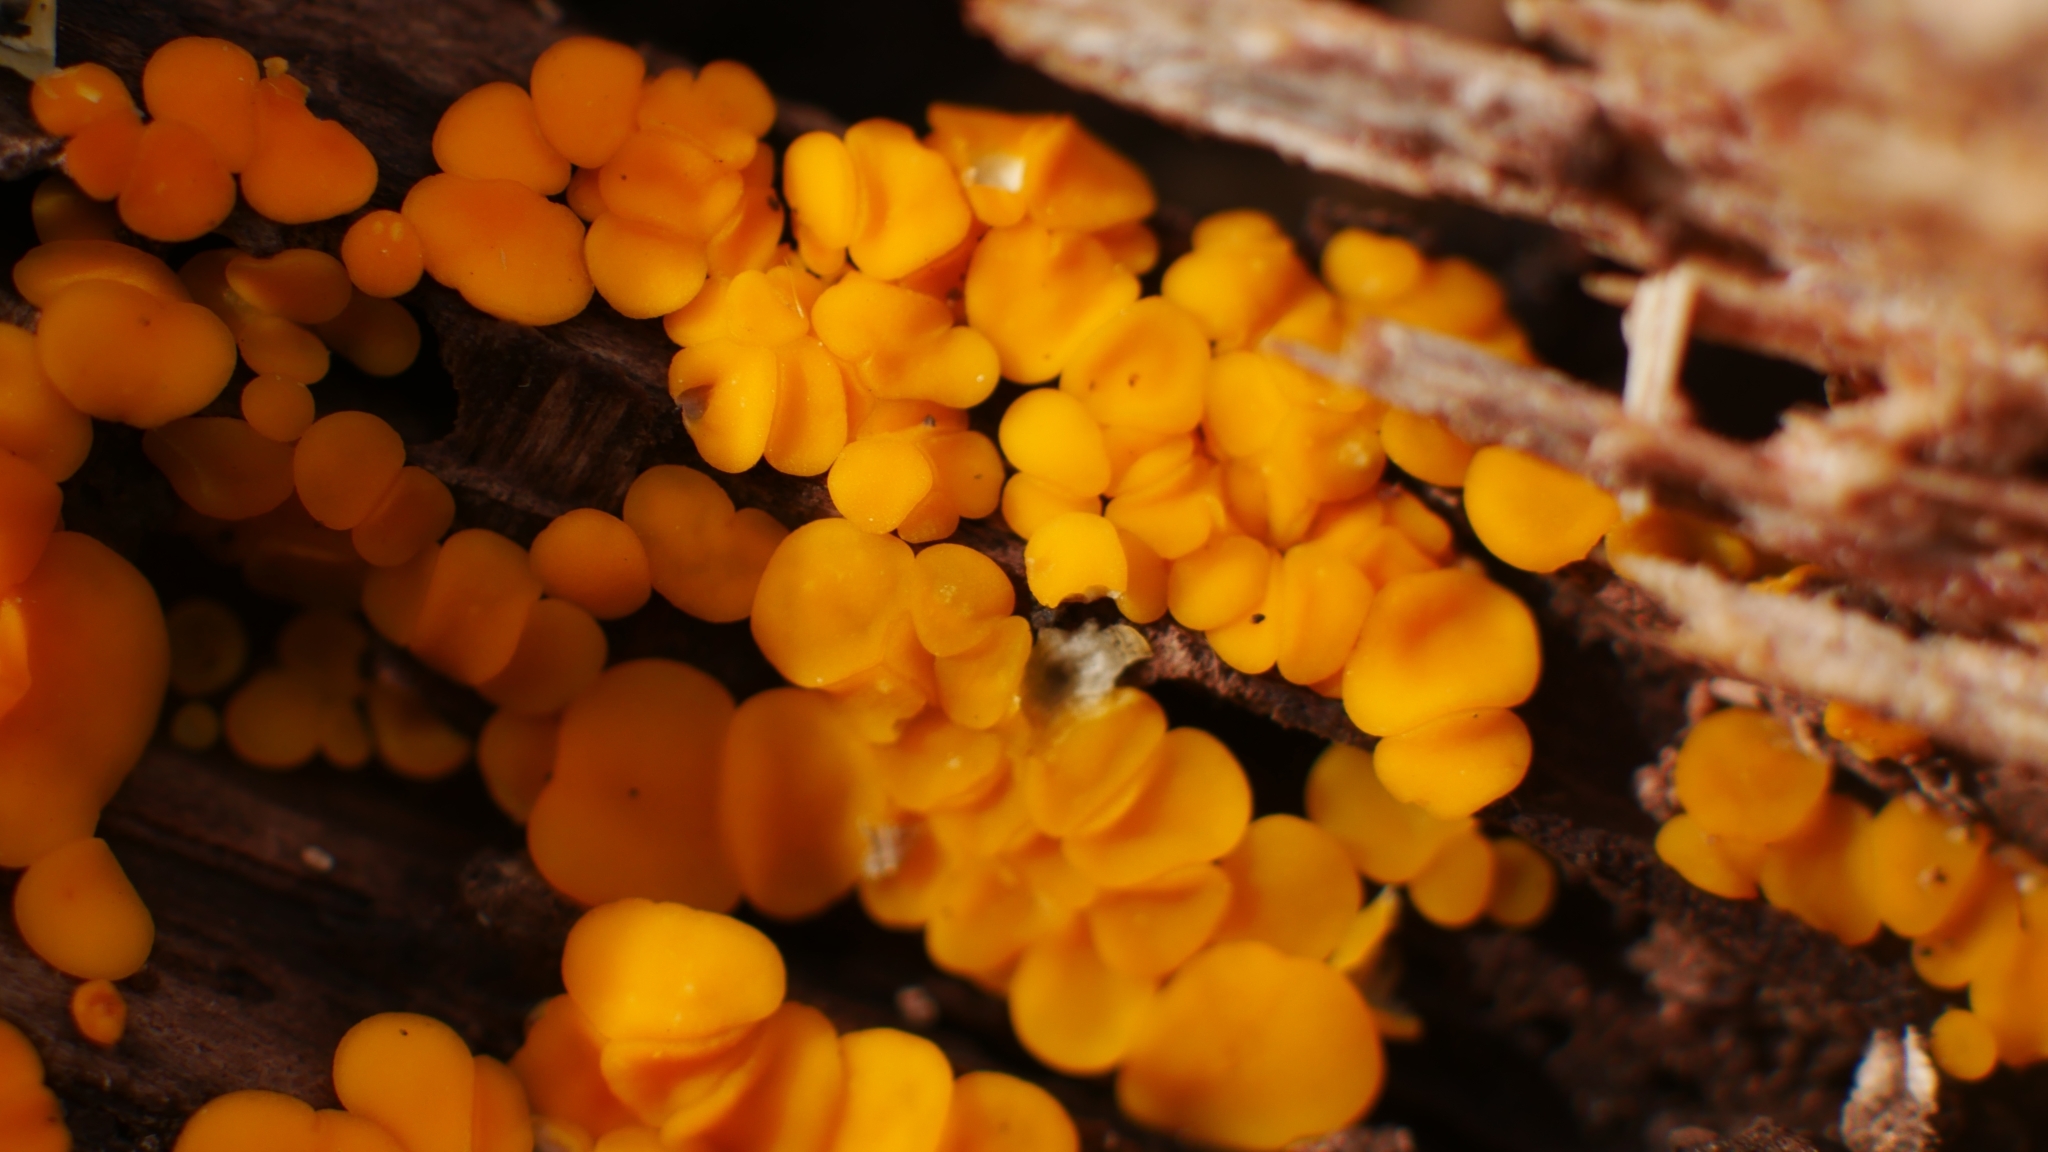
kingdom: Fungi
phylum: Ascomycota
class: Leotiomycetes
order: Helotiales
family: Pezizellaceae
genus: Calycina
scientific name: Calycina citrina
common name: Yellow fairy cups
